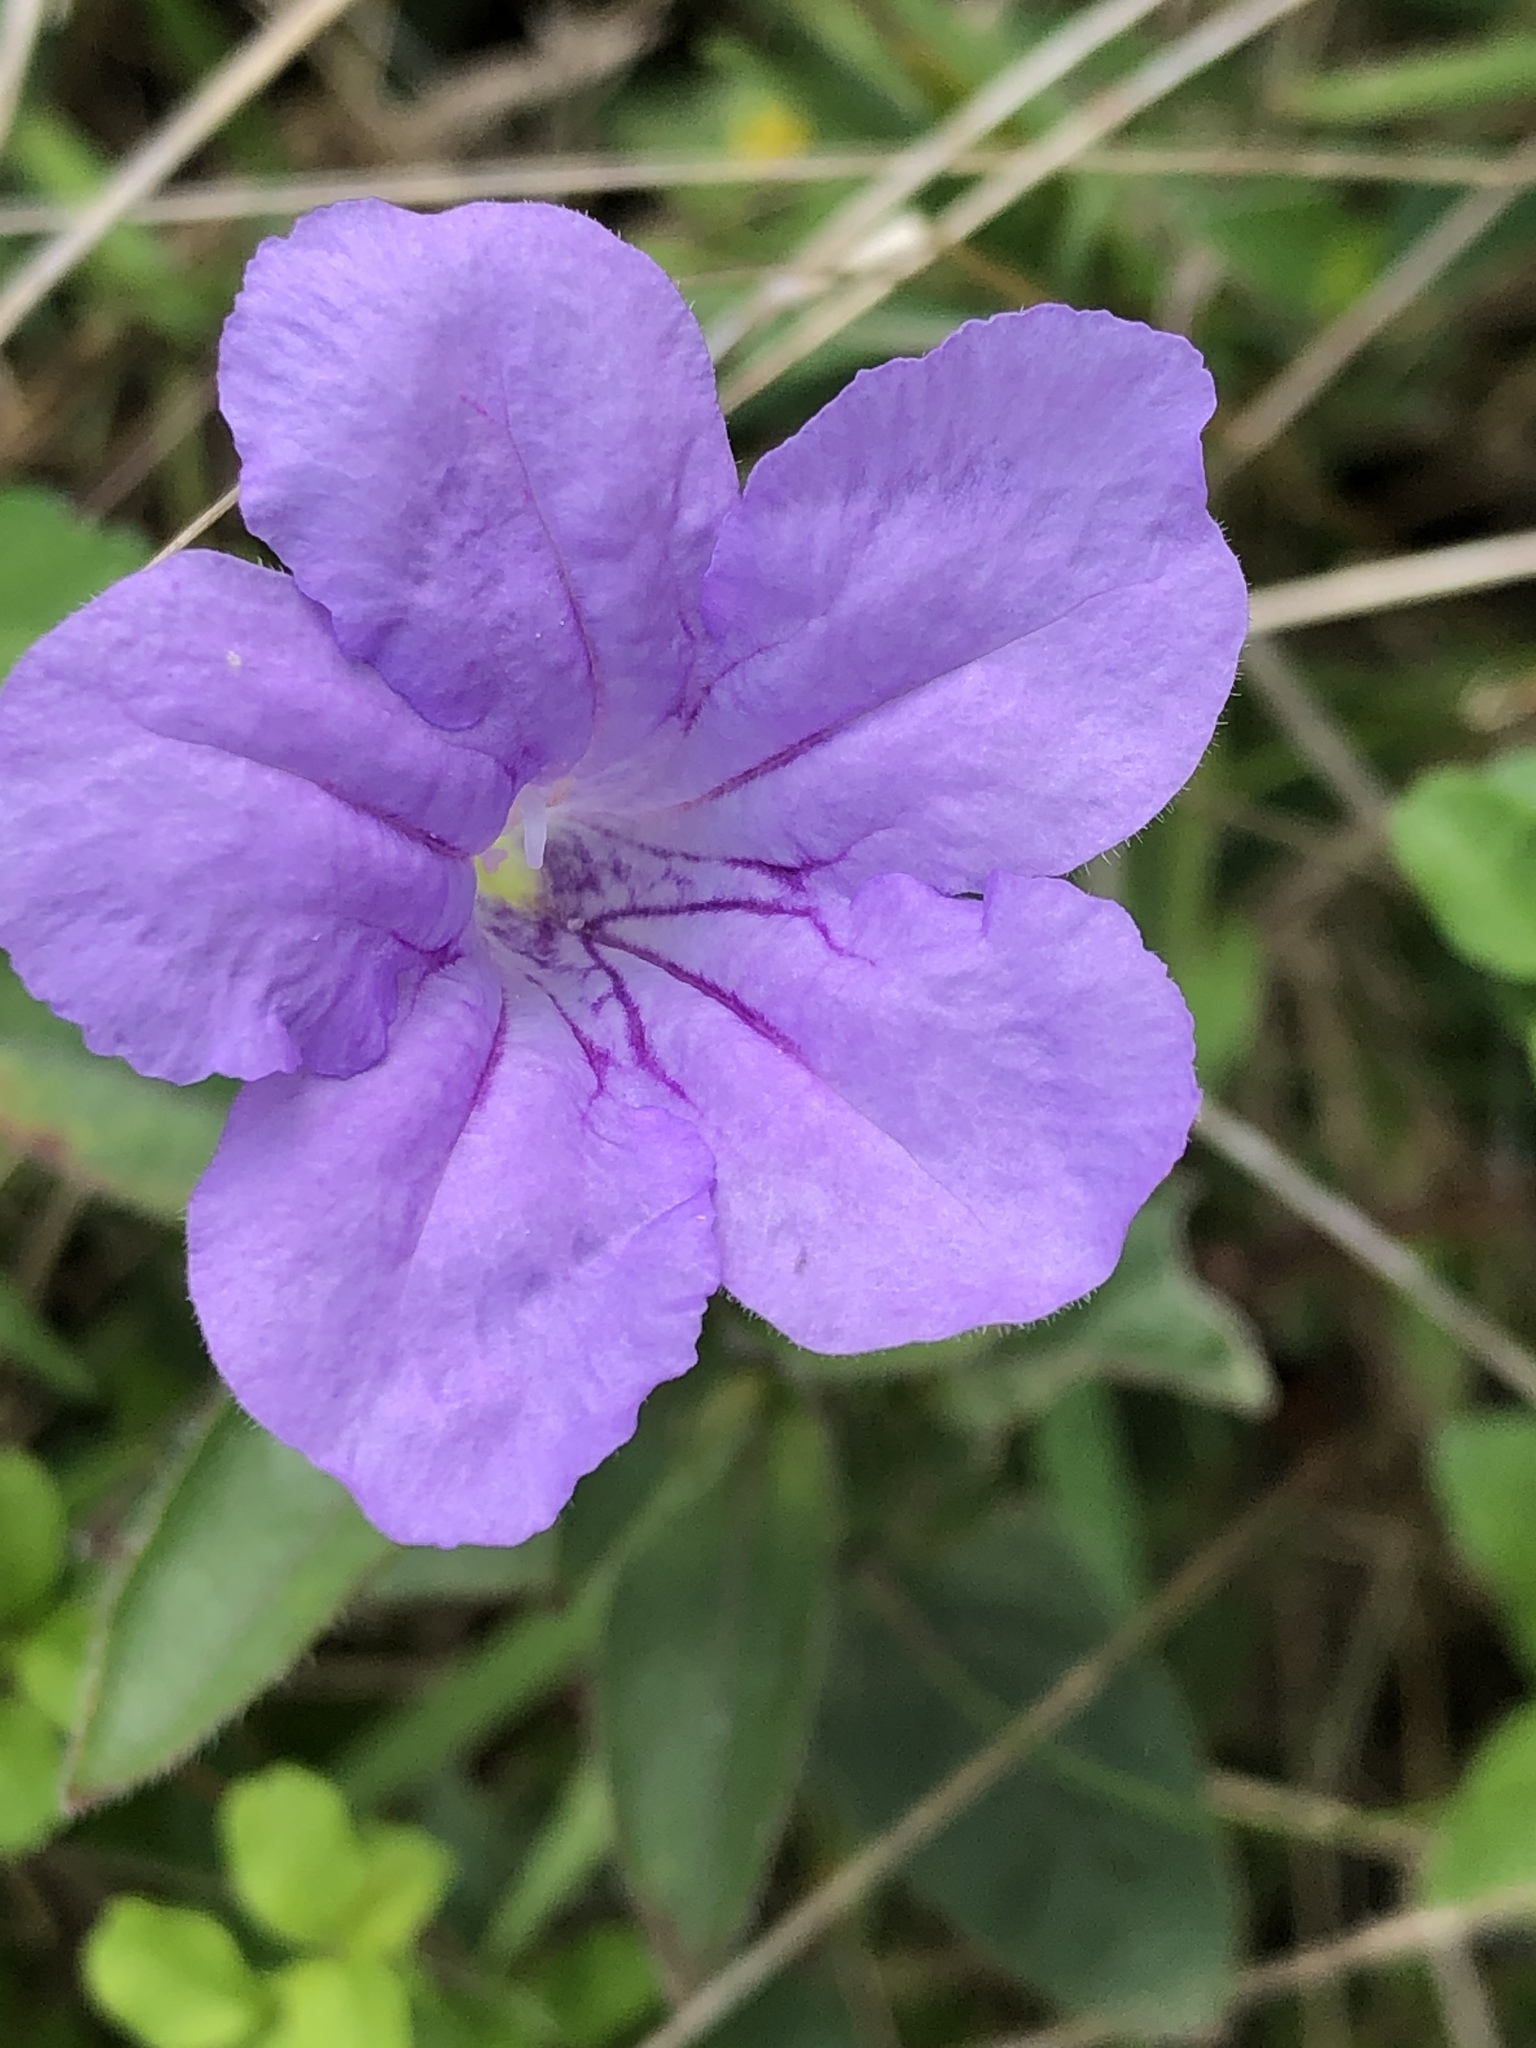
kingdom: Plantae
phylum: Tracheophyta
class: Magnoliopsida
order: Lamiales
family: Acanthaceae
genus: Ruellia
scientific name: Ruellia humilis
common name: Fringe-leaf ruellia
